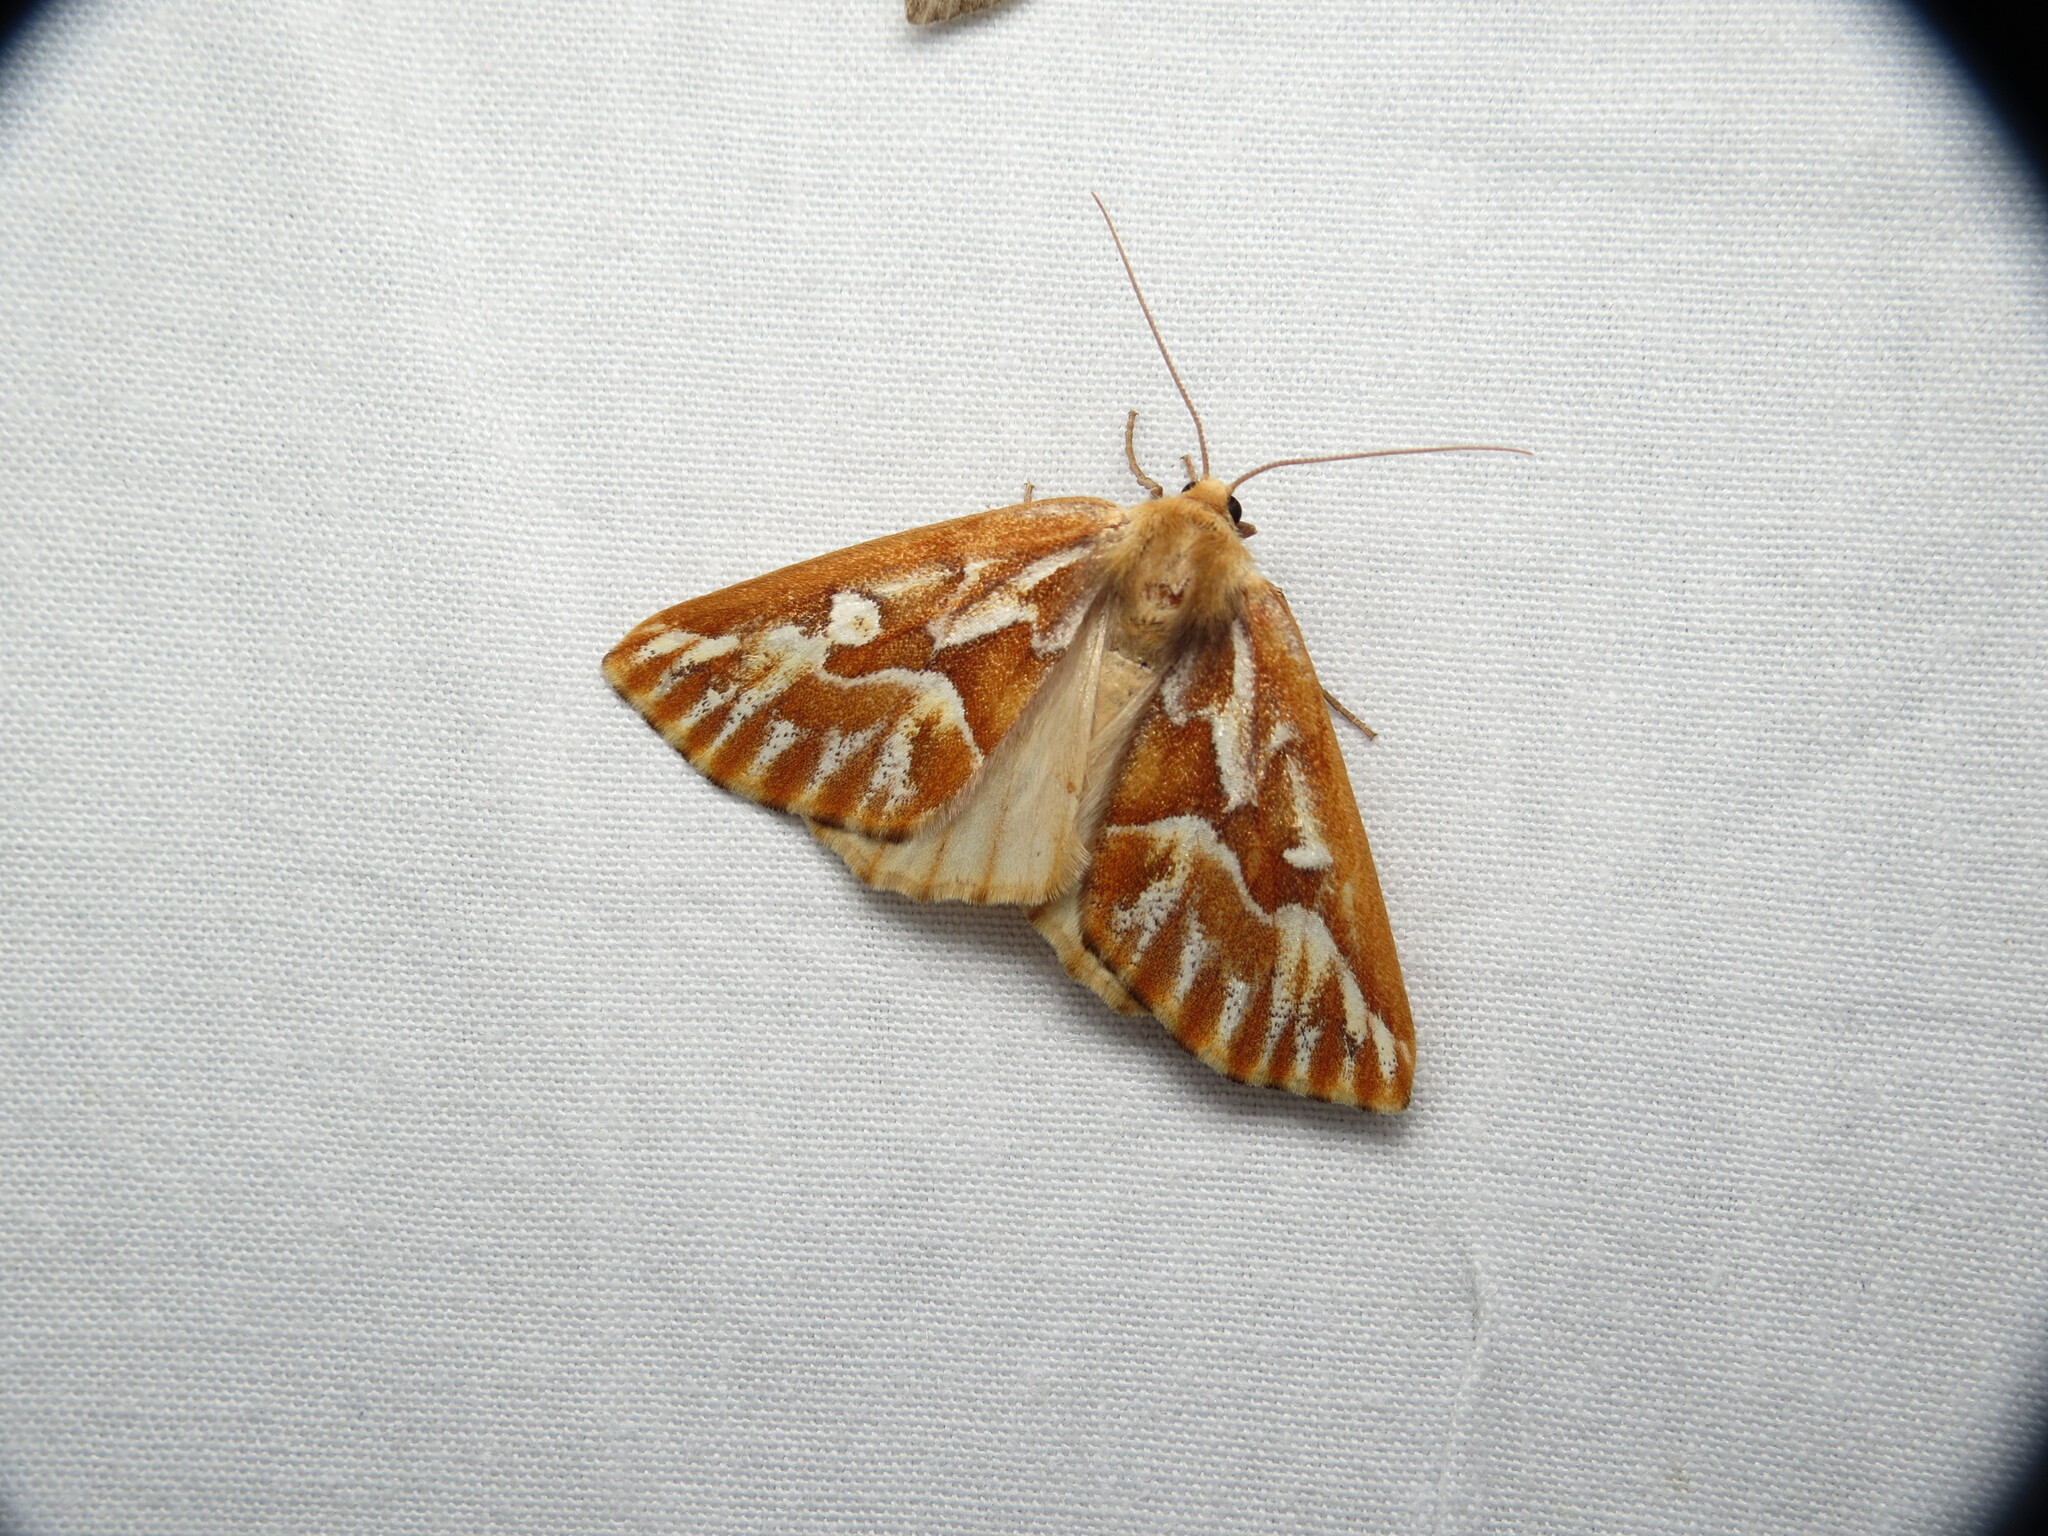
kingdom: Animalia
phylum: Arthropoda
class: Insecta
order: Lepidoptera
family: Geometridae
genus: Caripeta
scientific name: Caripeta piniata
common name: Northern pine looper moth
